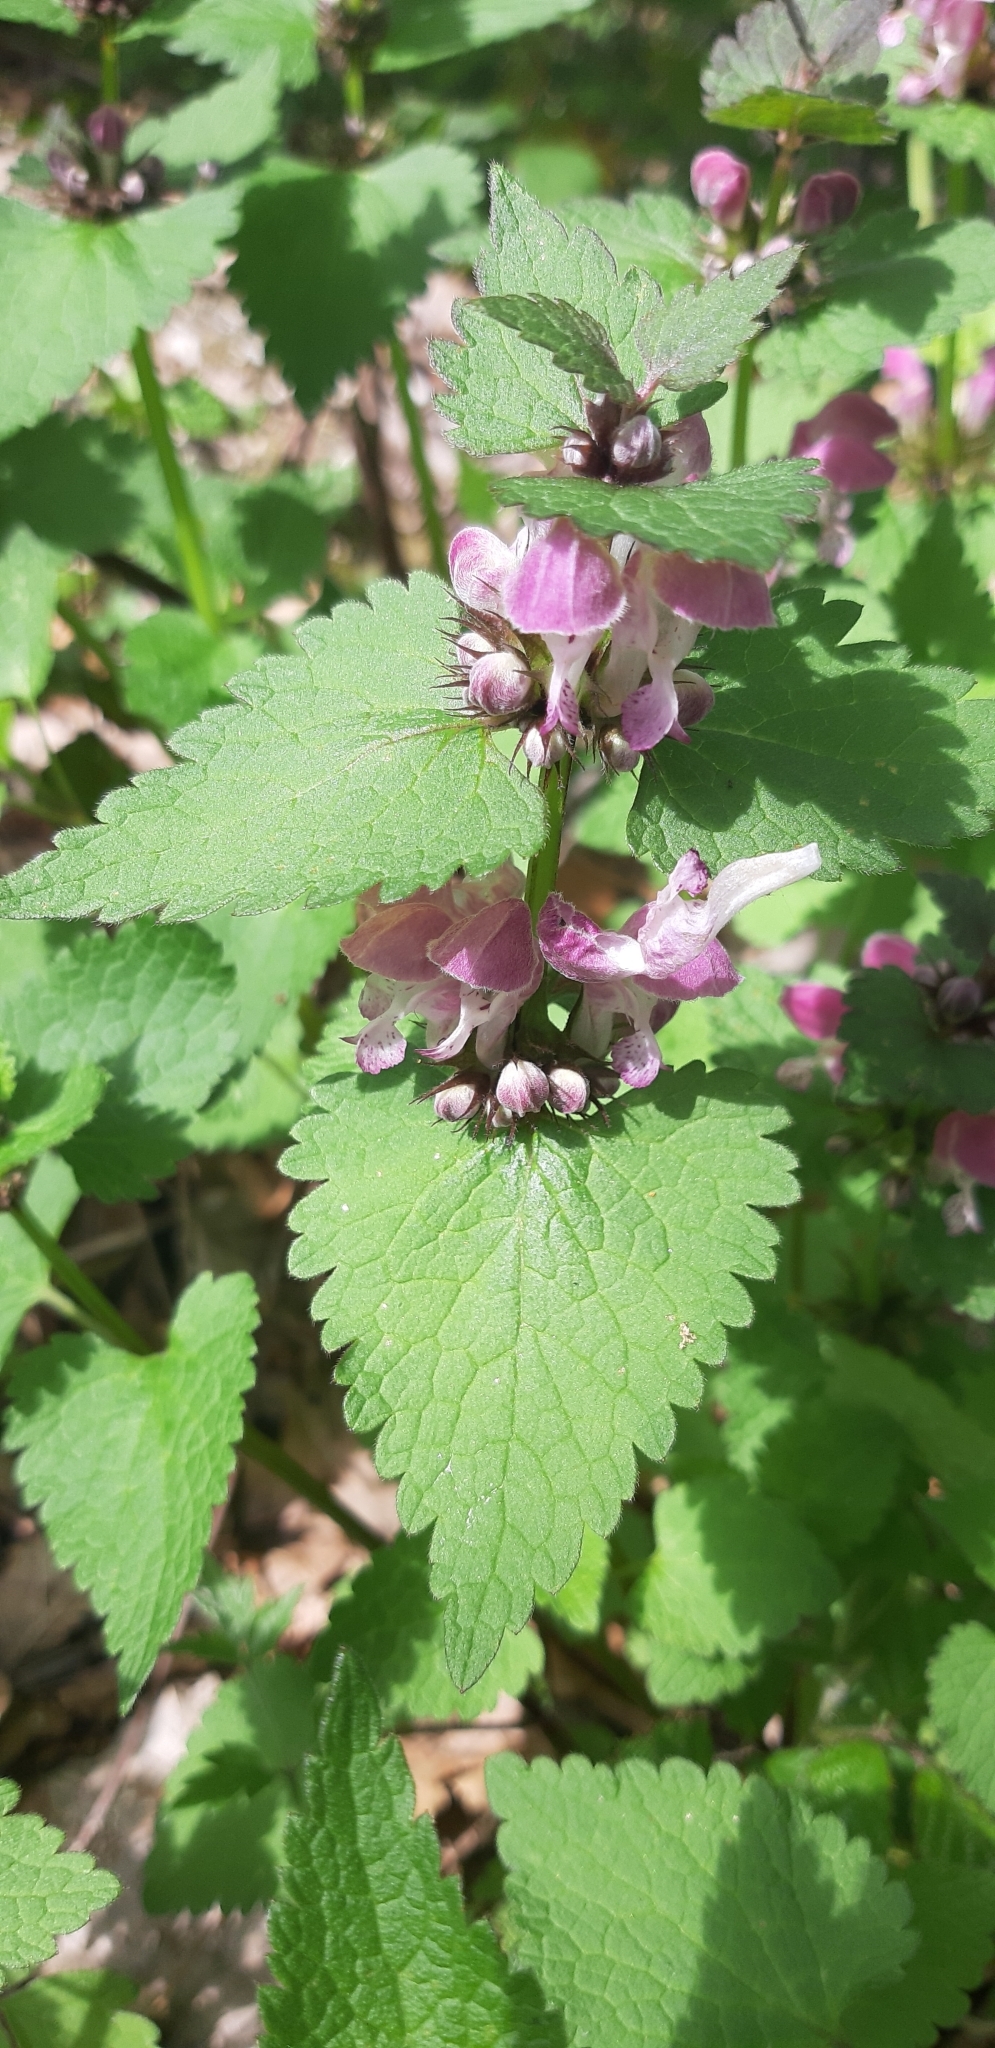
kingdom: Plantae
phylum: Tracheophyta
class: Magnoliopsida
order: Lamiales
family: Lamiaceae
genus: Lamium
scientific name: Lamium maculatum
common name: Spotted dead-nettle
